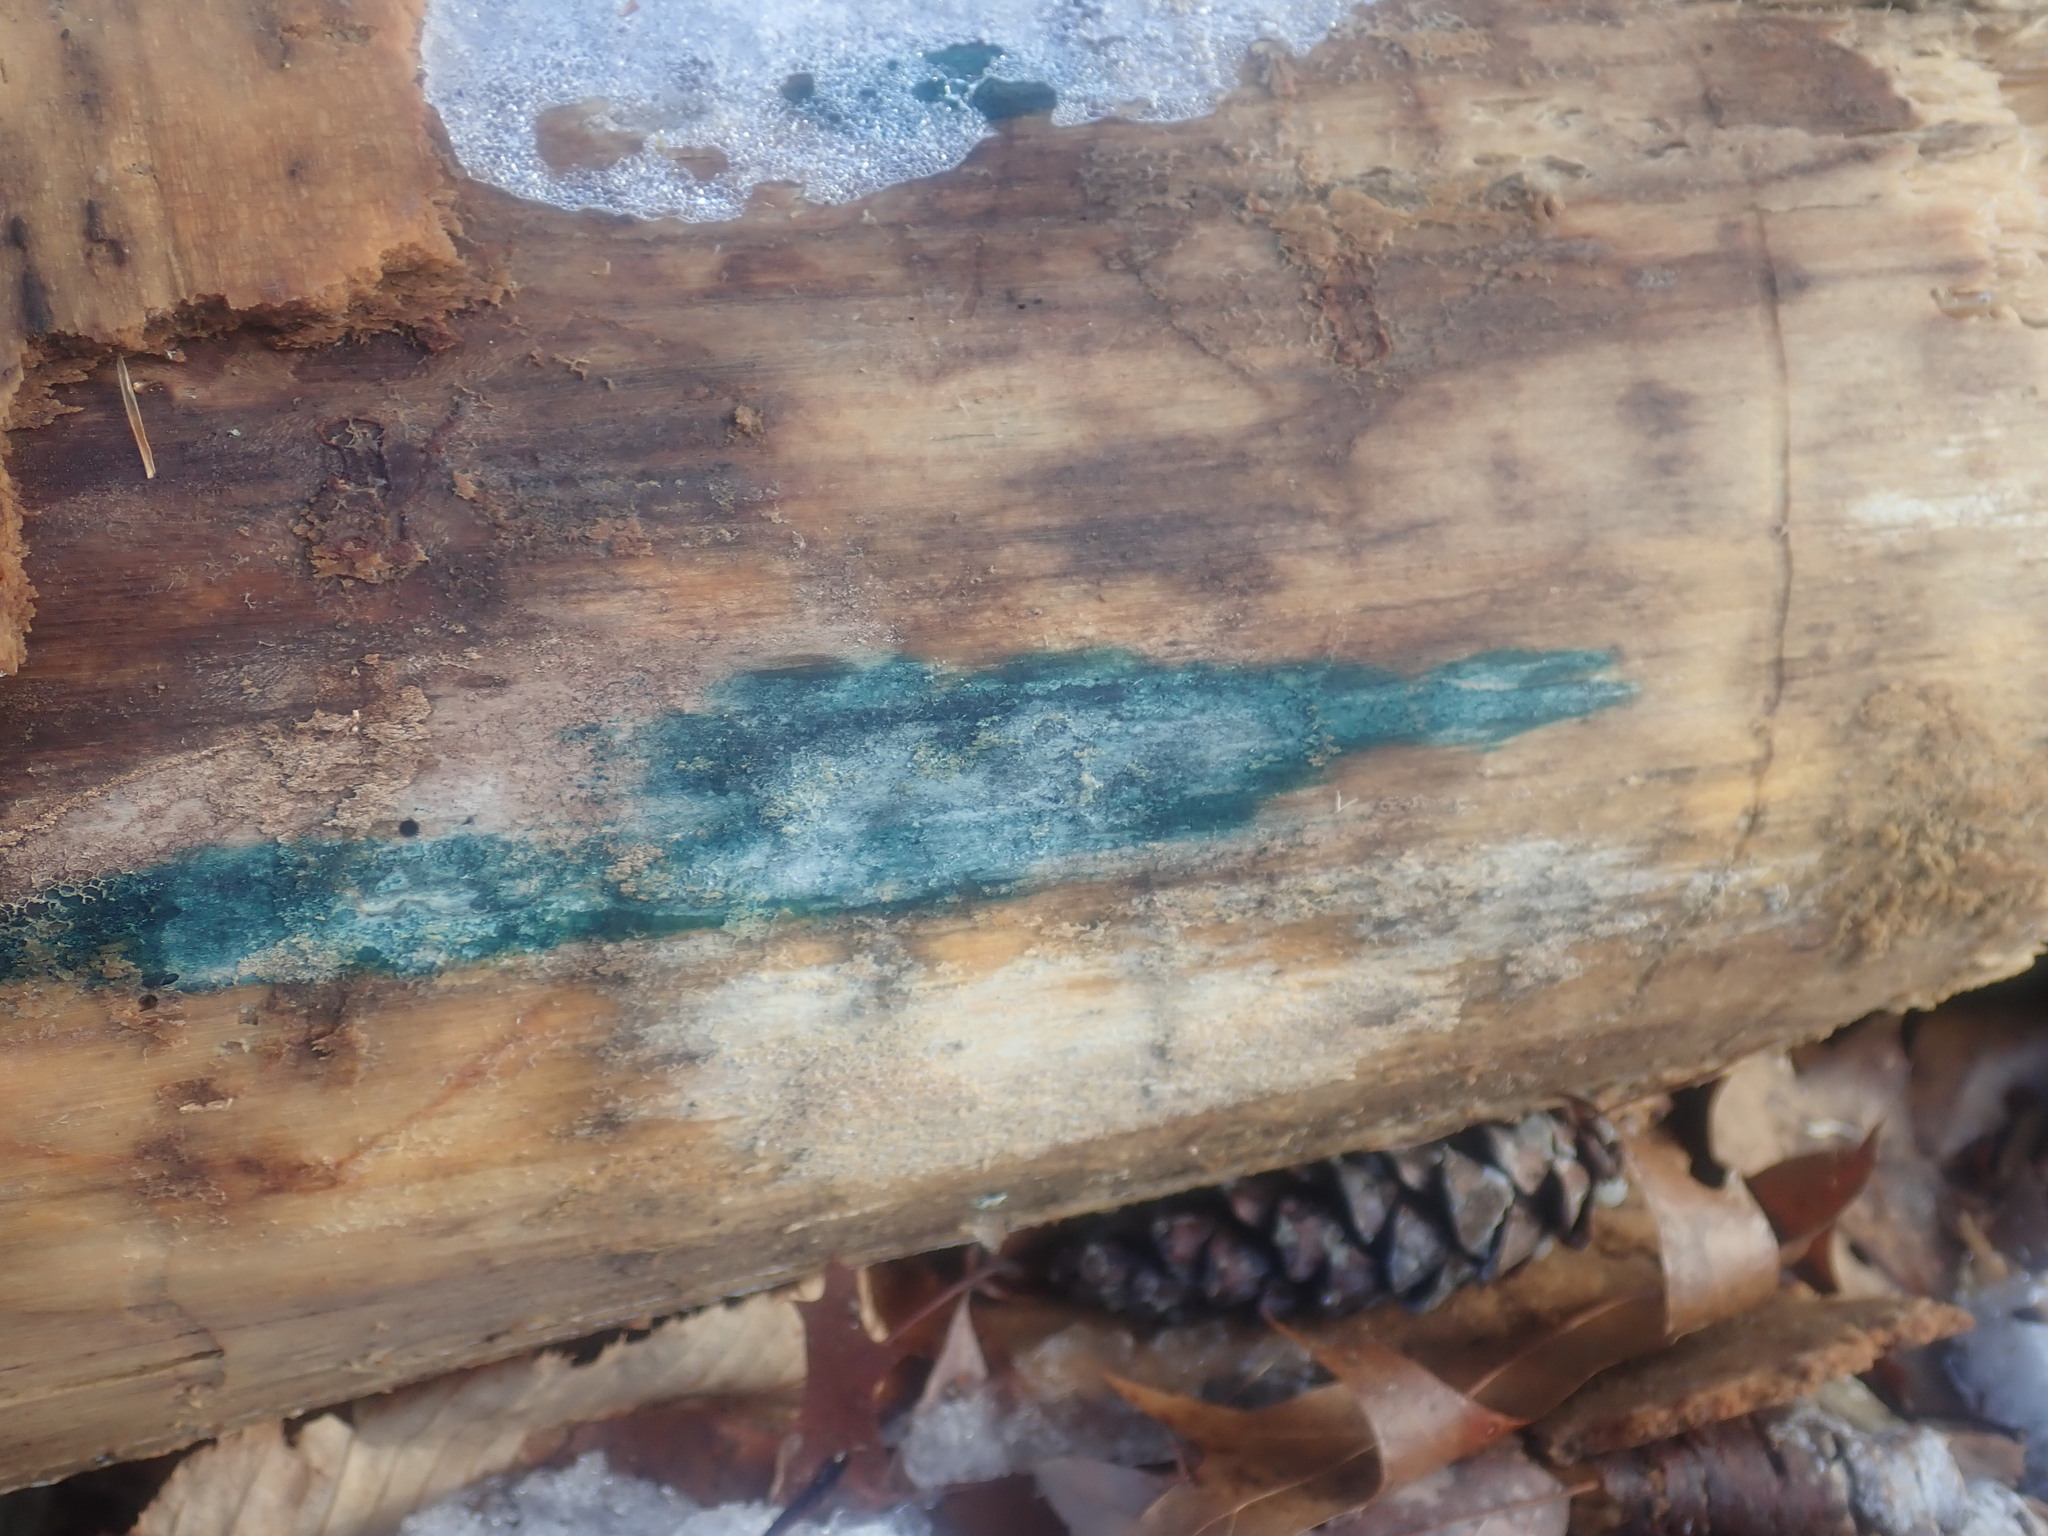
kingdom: Fungi
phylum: Ascomycota
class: Leotiomycetes
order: Helotiales
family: Chlorociboriaceae
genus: Chlorociboria
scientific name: Chlorociboria
